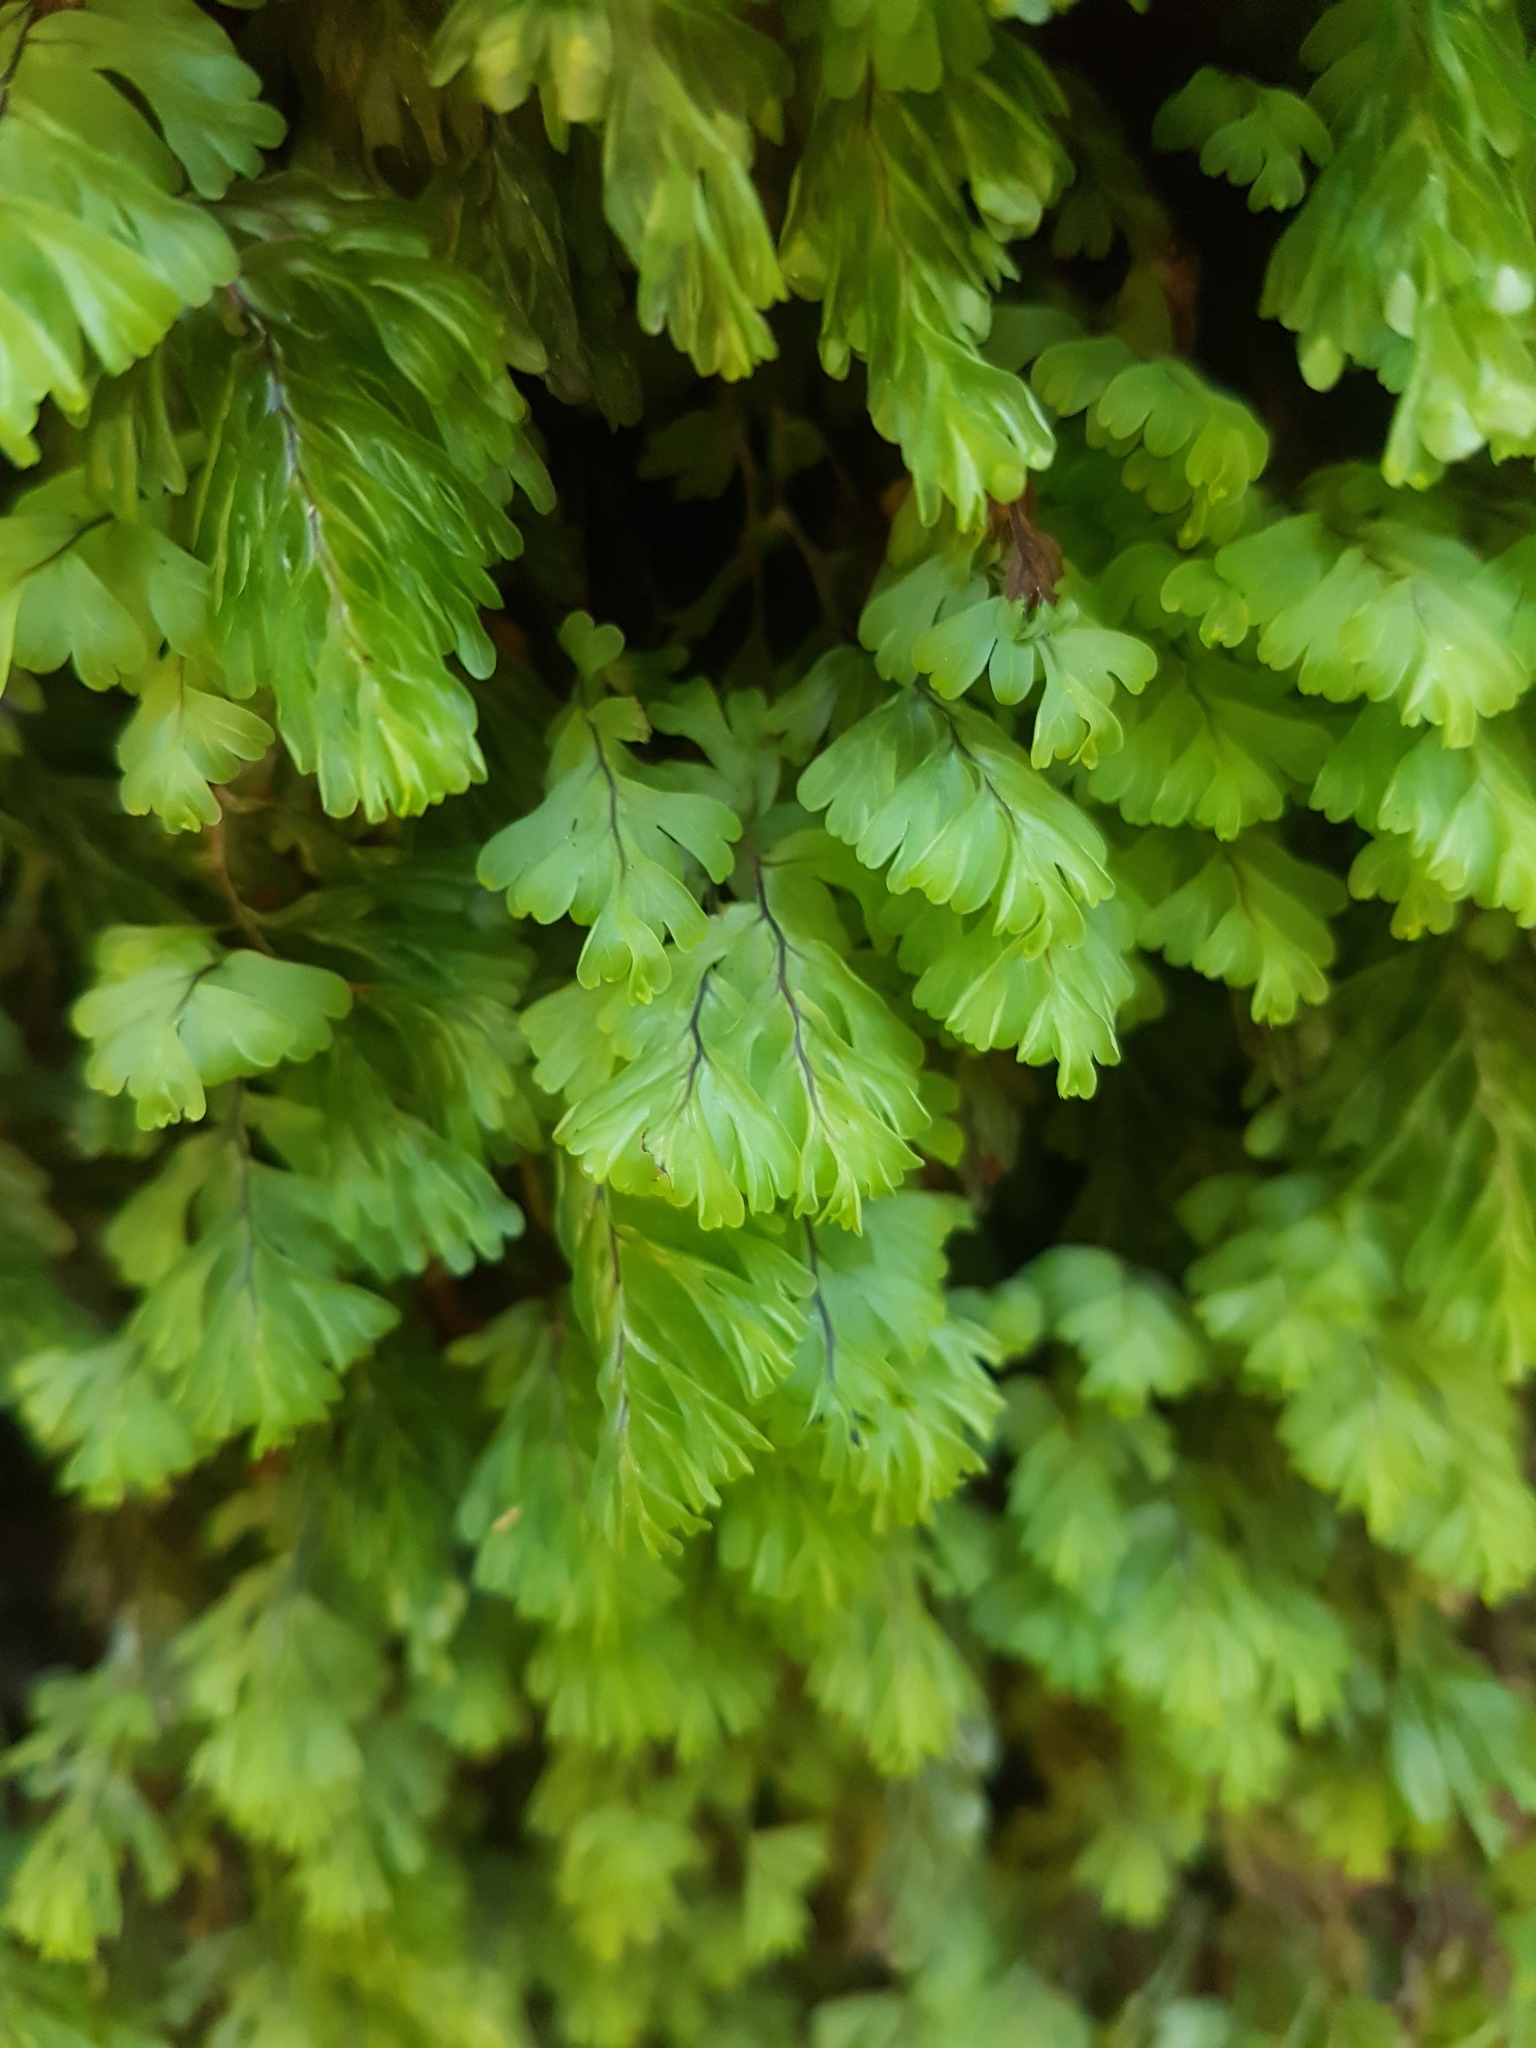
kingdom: Plantae
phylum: Tracheophyta
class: Polypodiopsida
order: Hymenophyllales
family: Hymenophyllaceae
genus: Hymenophyllum
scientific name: Hymenophyllum rarum
